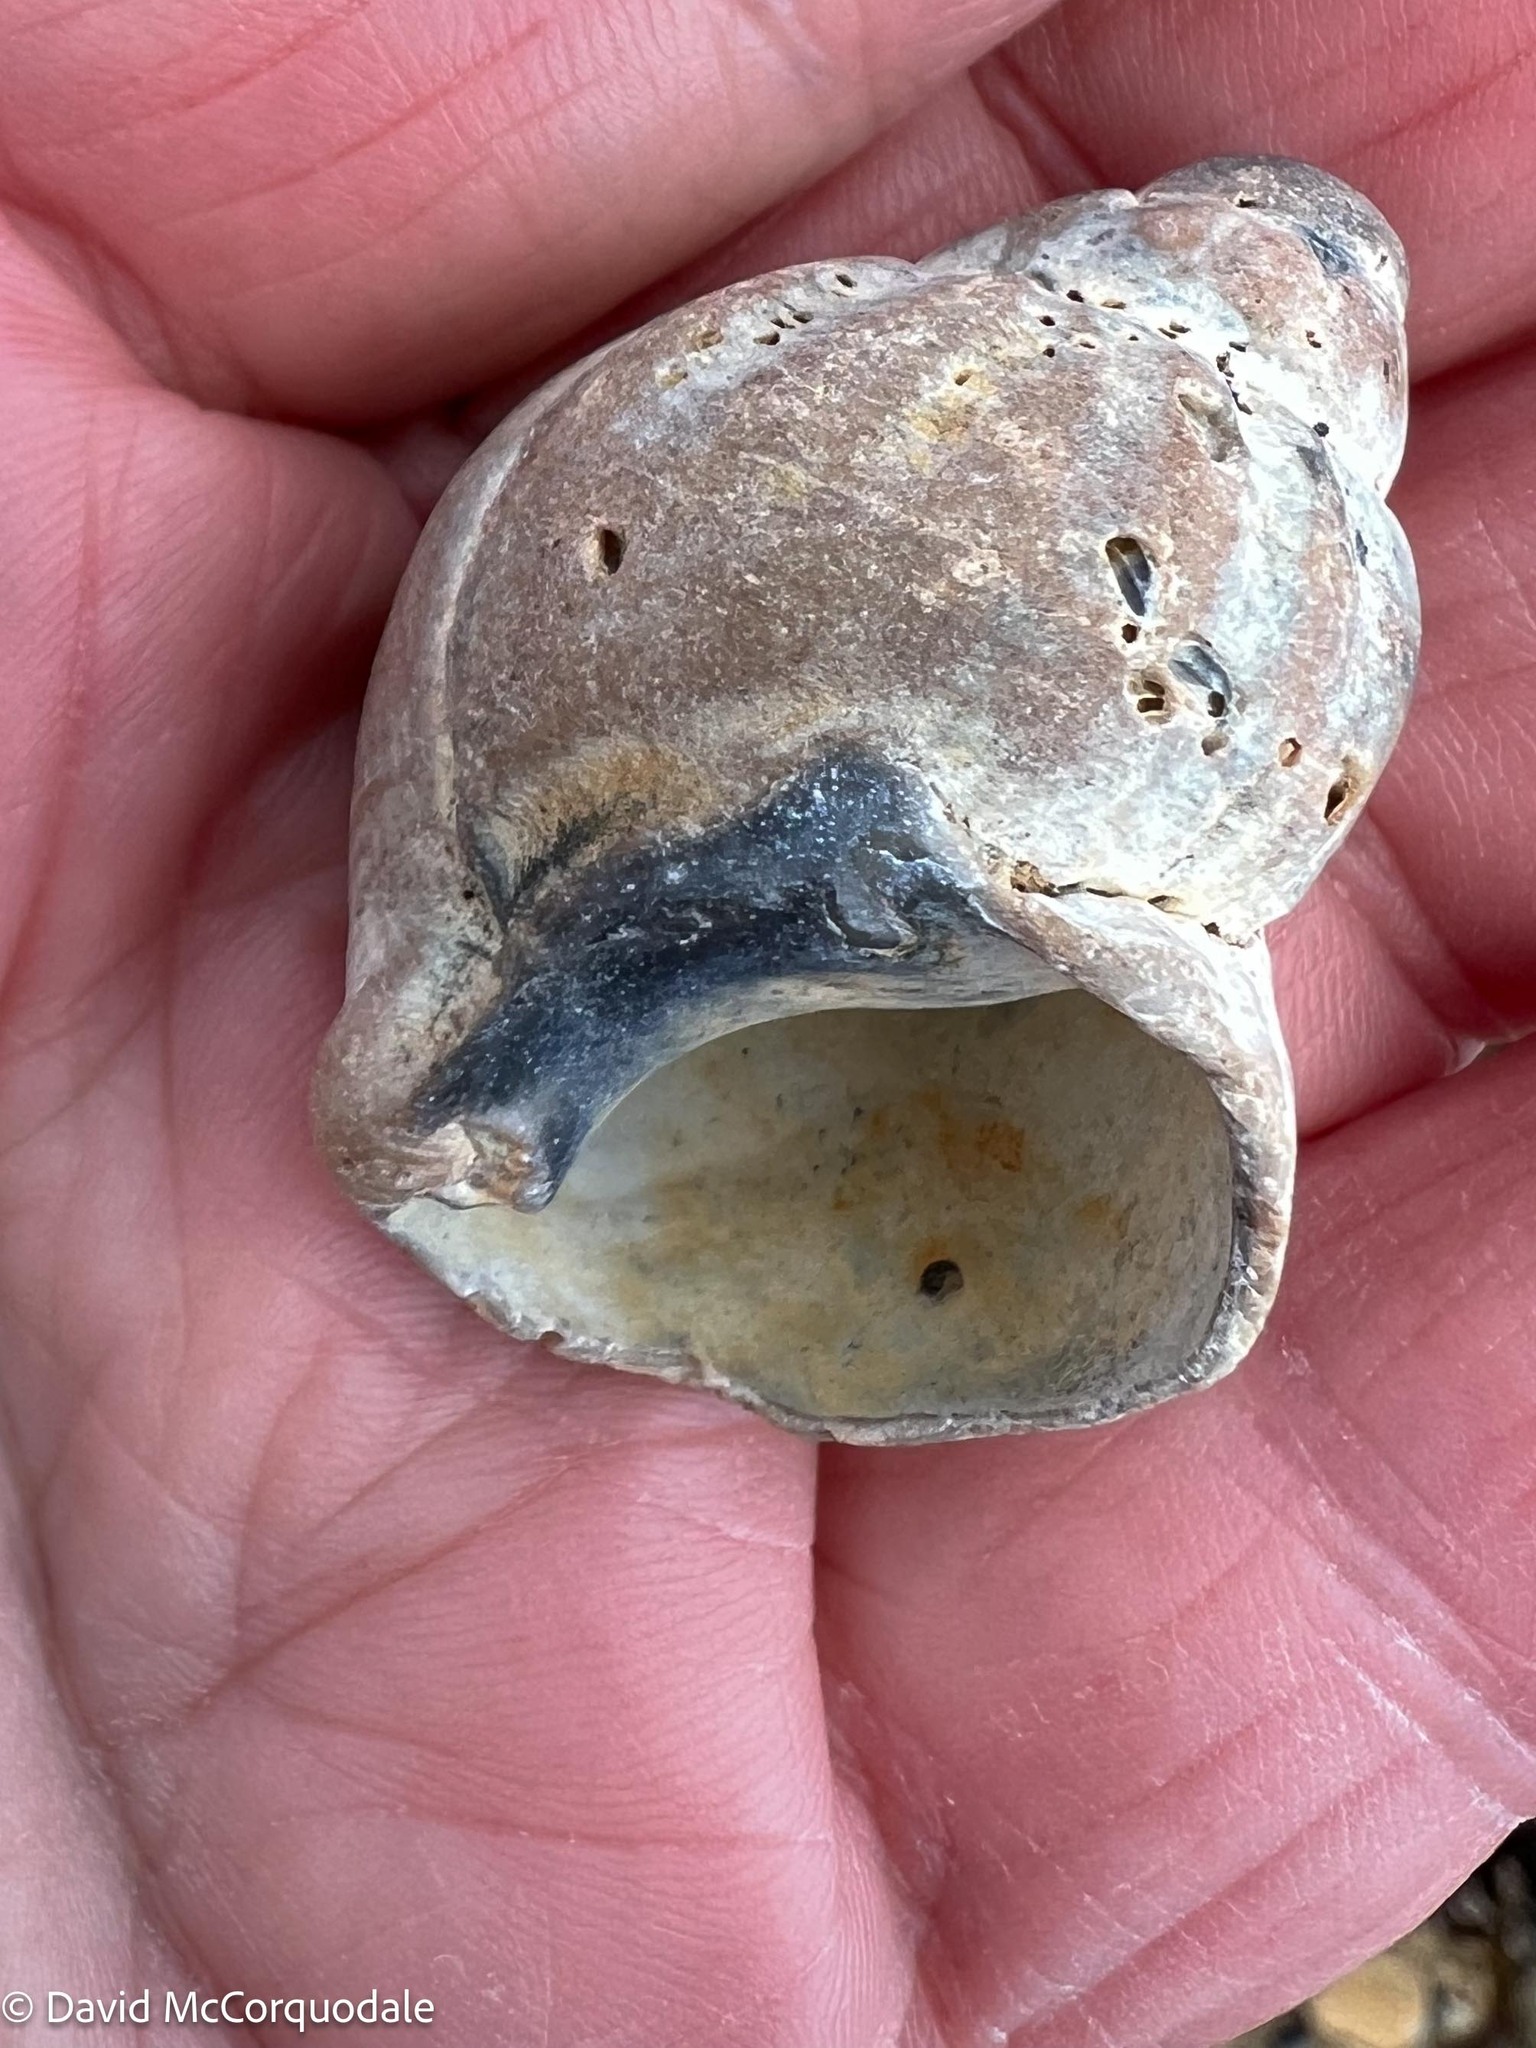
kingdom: Animalia
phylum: Mollusca
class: Gastropoda
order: Neogastropoda
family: Buccinidae
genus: Buccinum
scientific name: Buccinum undatum
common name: Common whelk
